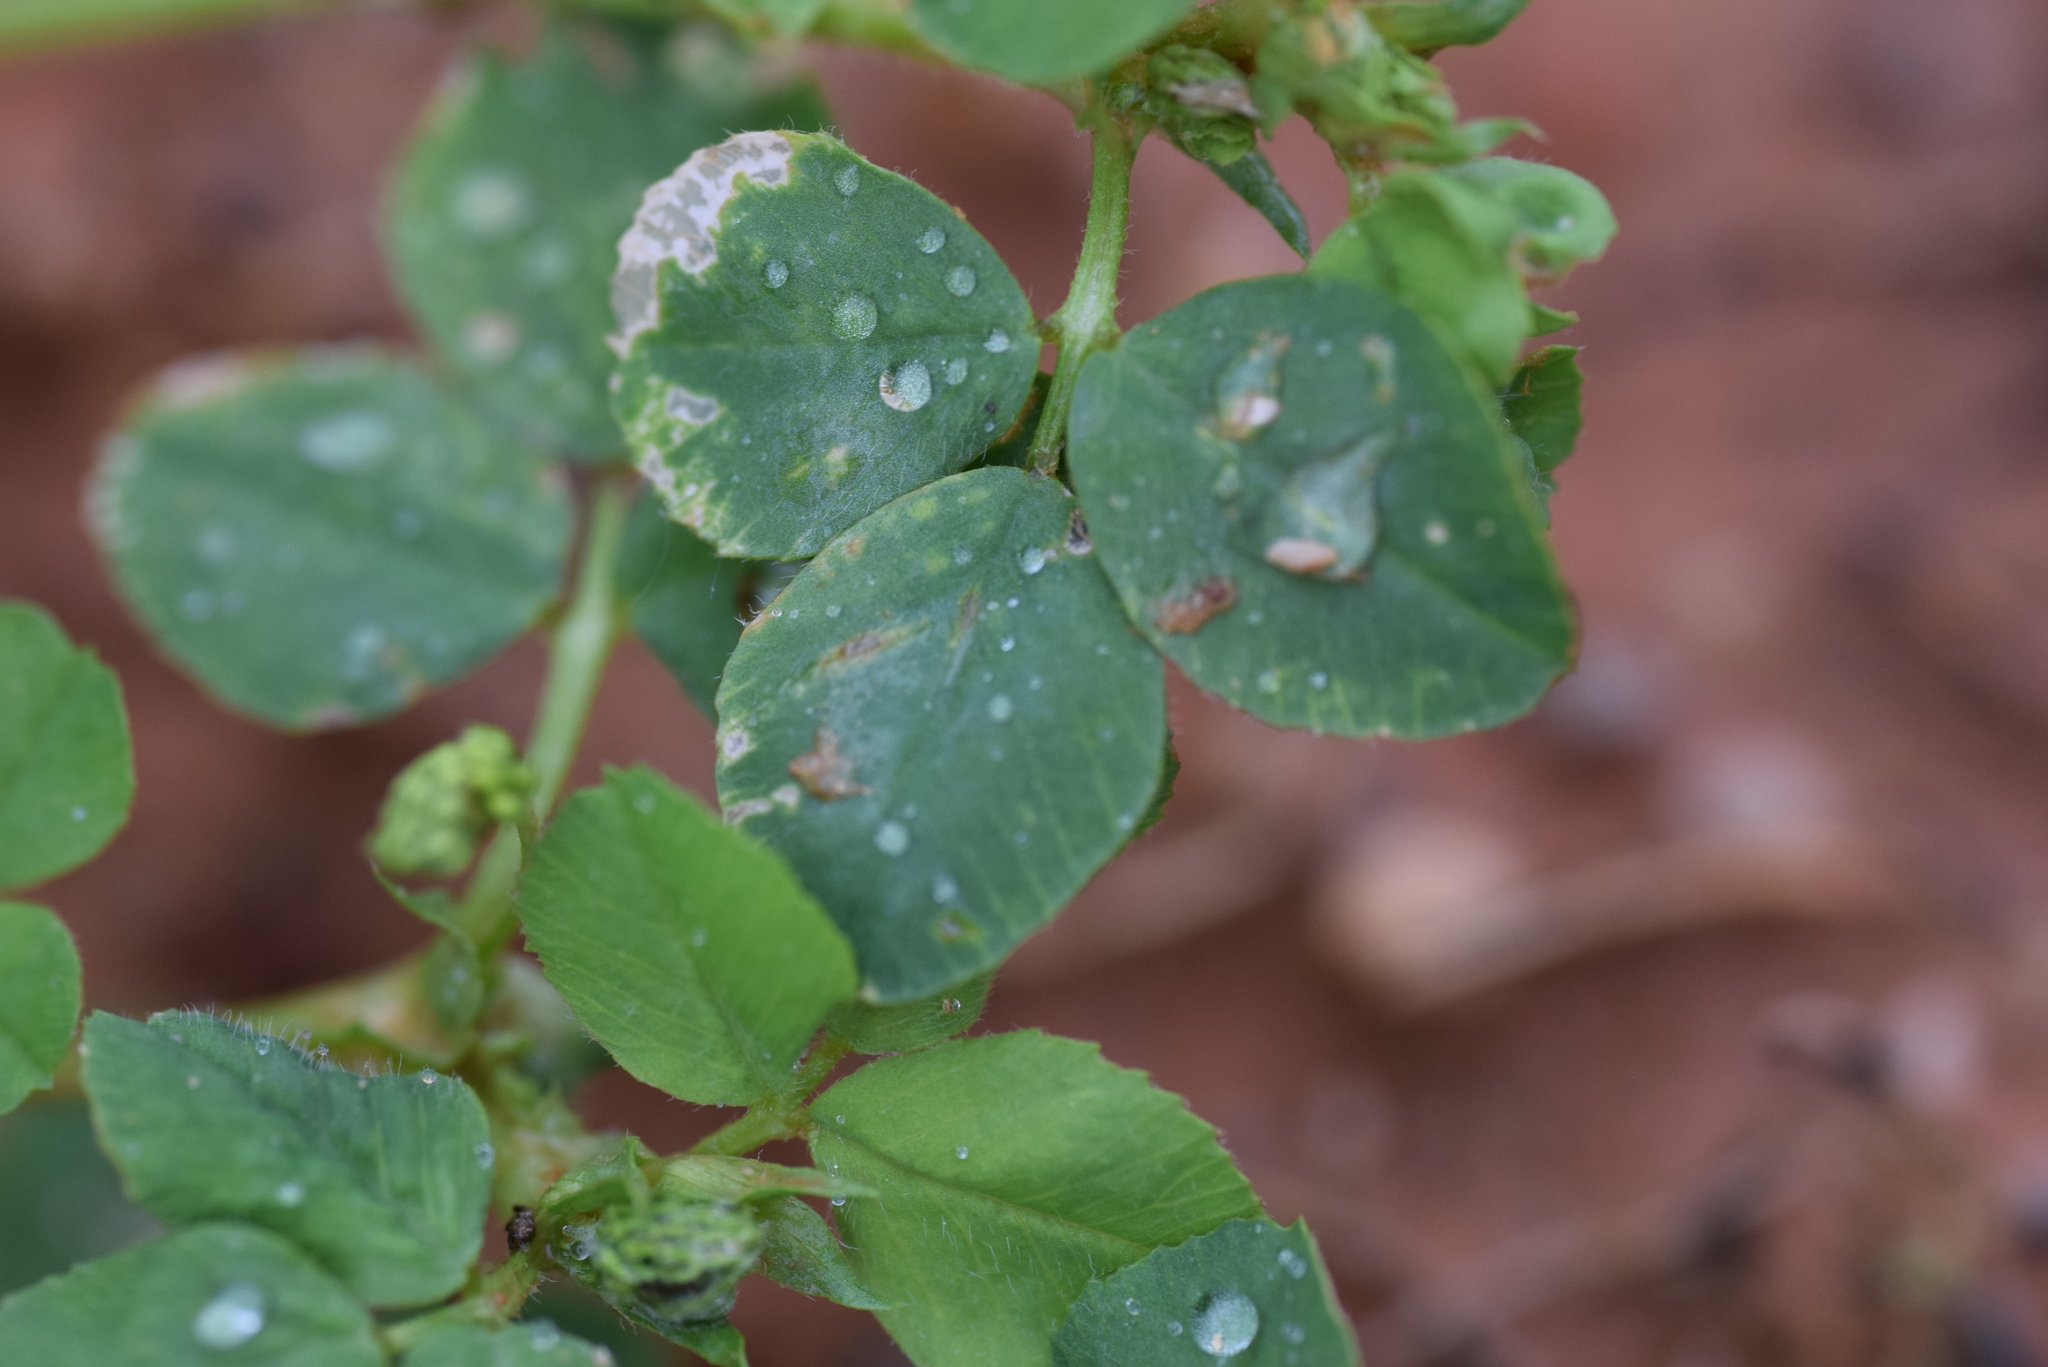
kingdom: Plantae
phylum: Tracheophyta
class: Magnoliopsida
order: Fabales
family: Fabaceae
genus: Medicago
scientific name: Medicago lupulina
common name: Black medick
